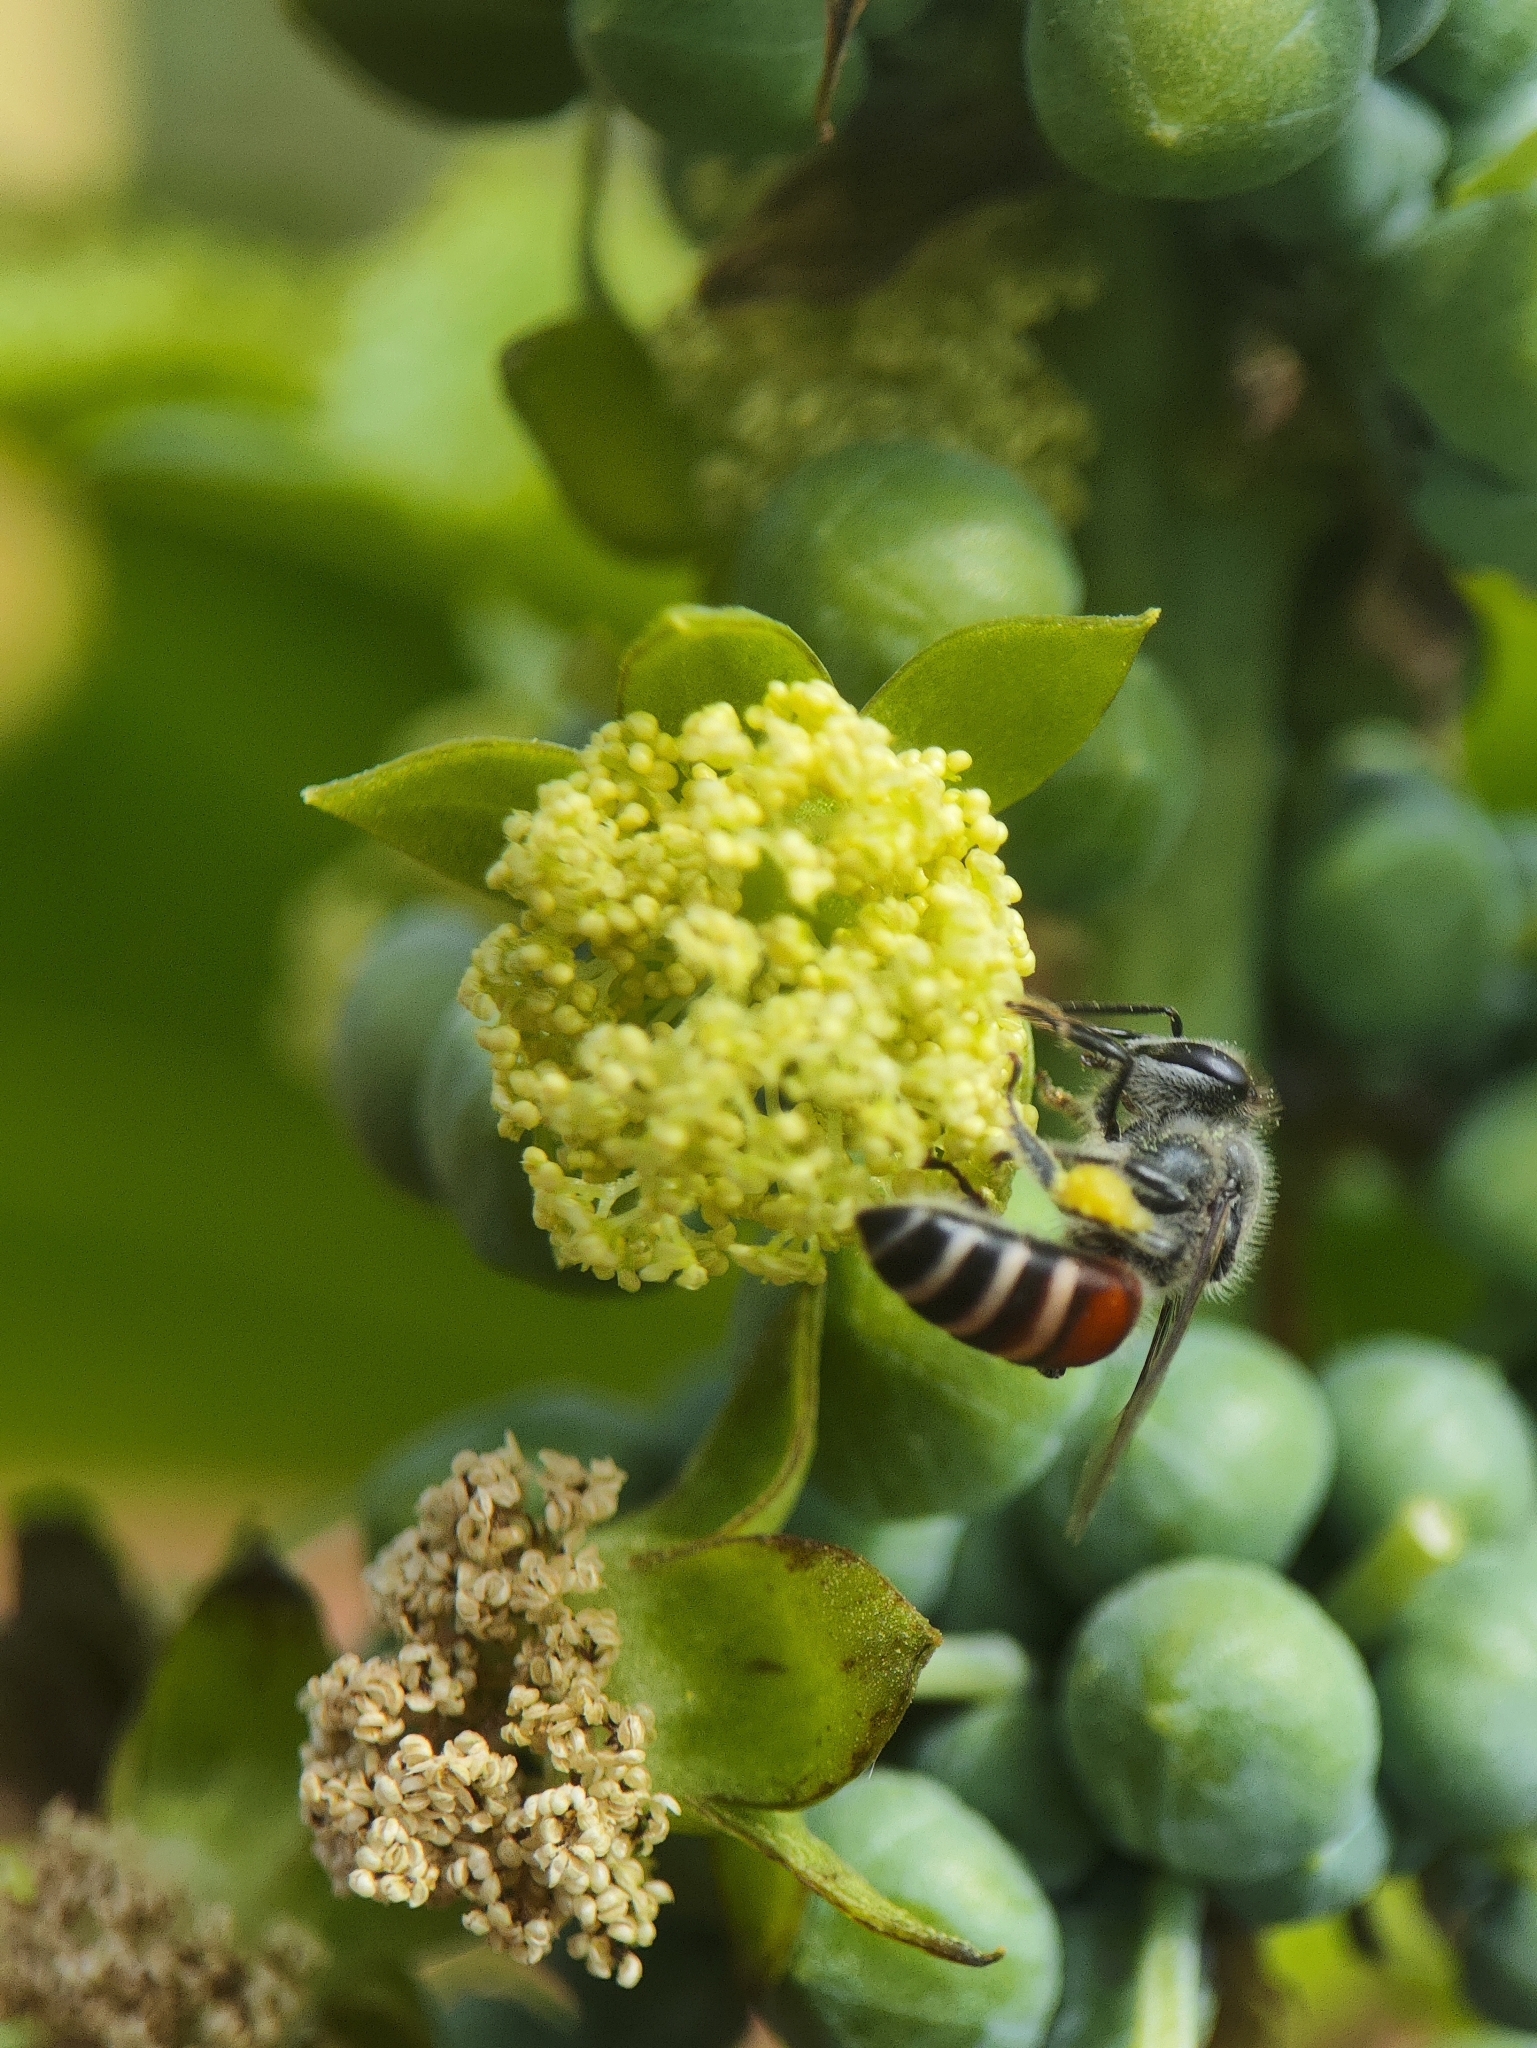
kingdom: Animalia
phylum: Arthropoda
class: Insecta
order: Hymenoptera
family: Apidae
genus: Apis
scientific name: Apis florea
